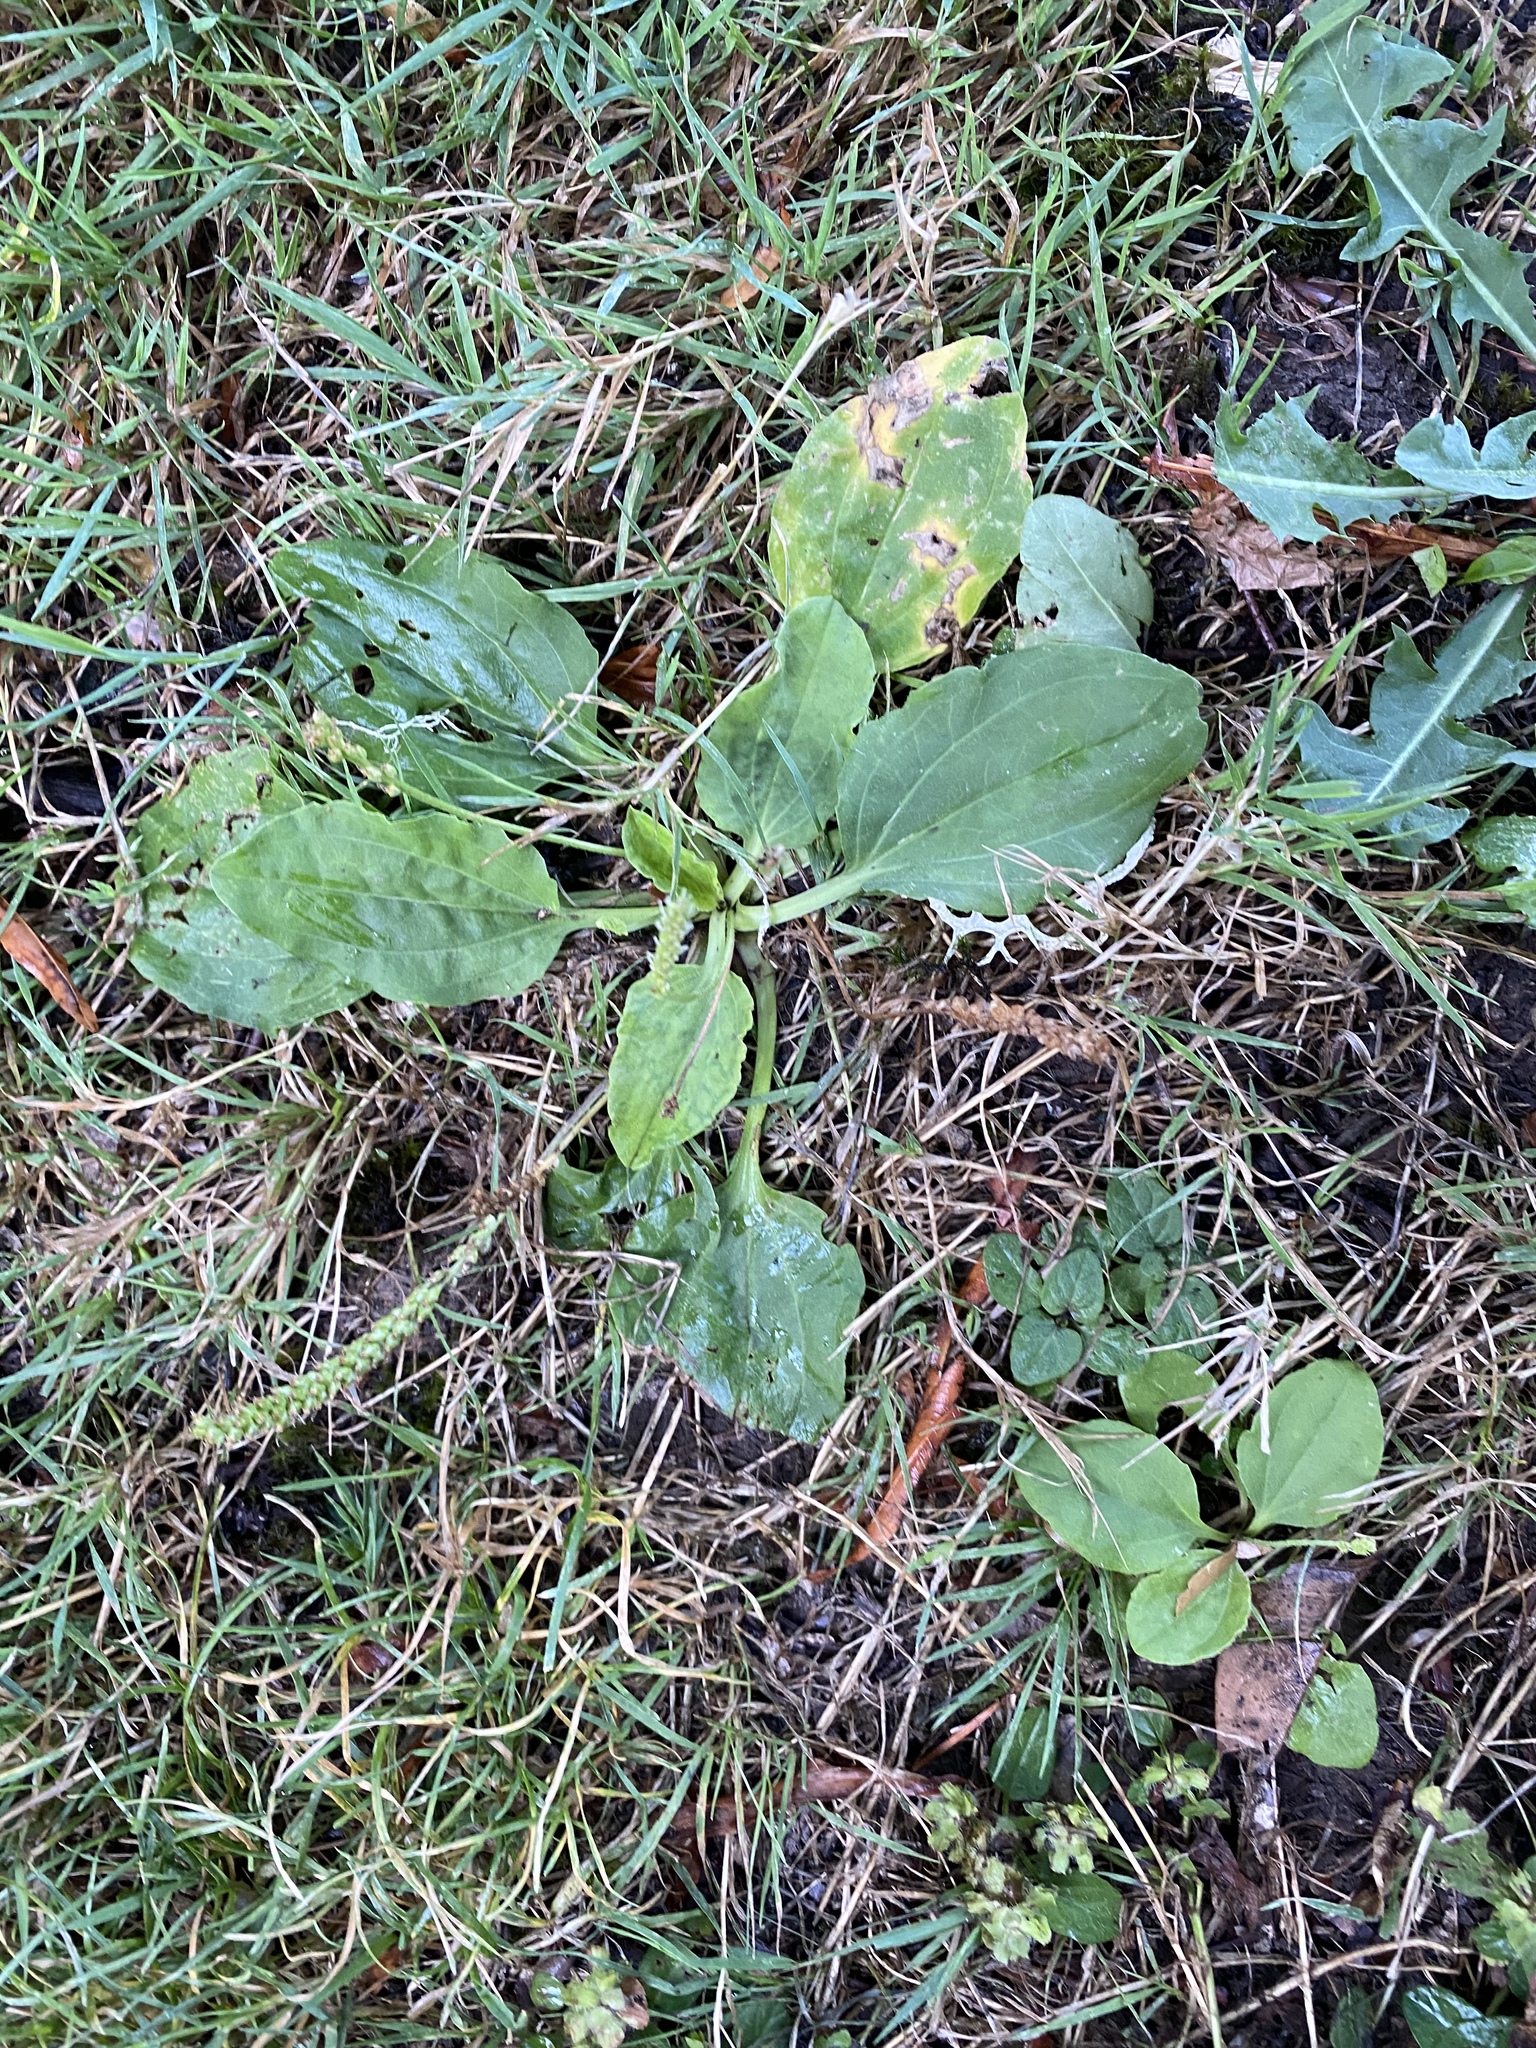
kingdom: Plantae
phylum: Tracheophyta
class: Magnoliopsida
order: Lamiales
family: Plantaginaceae
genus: Plantago
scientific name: Plantago major
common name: Common plantain
